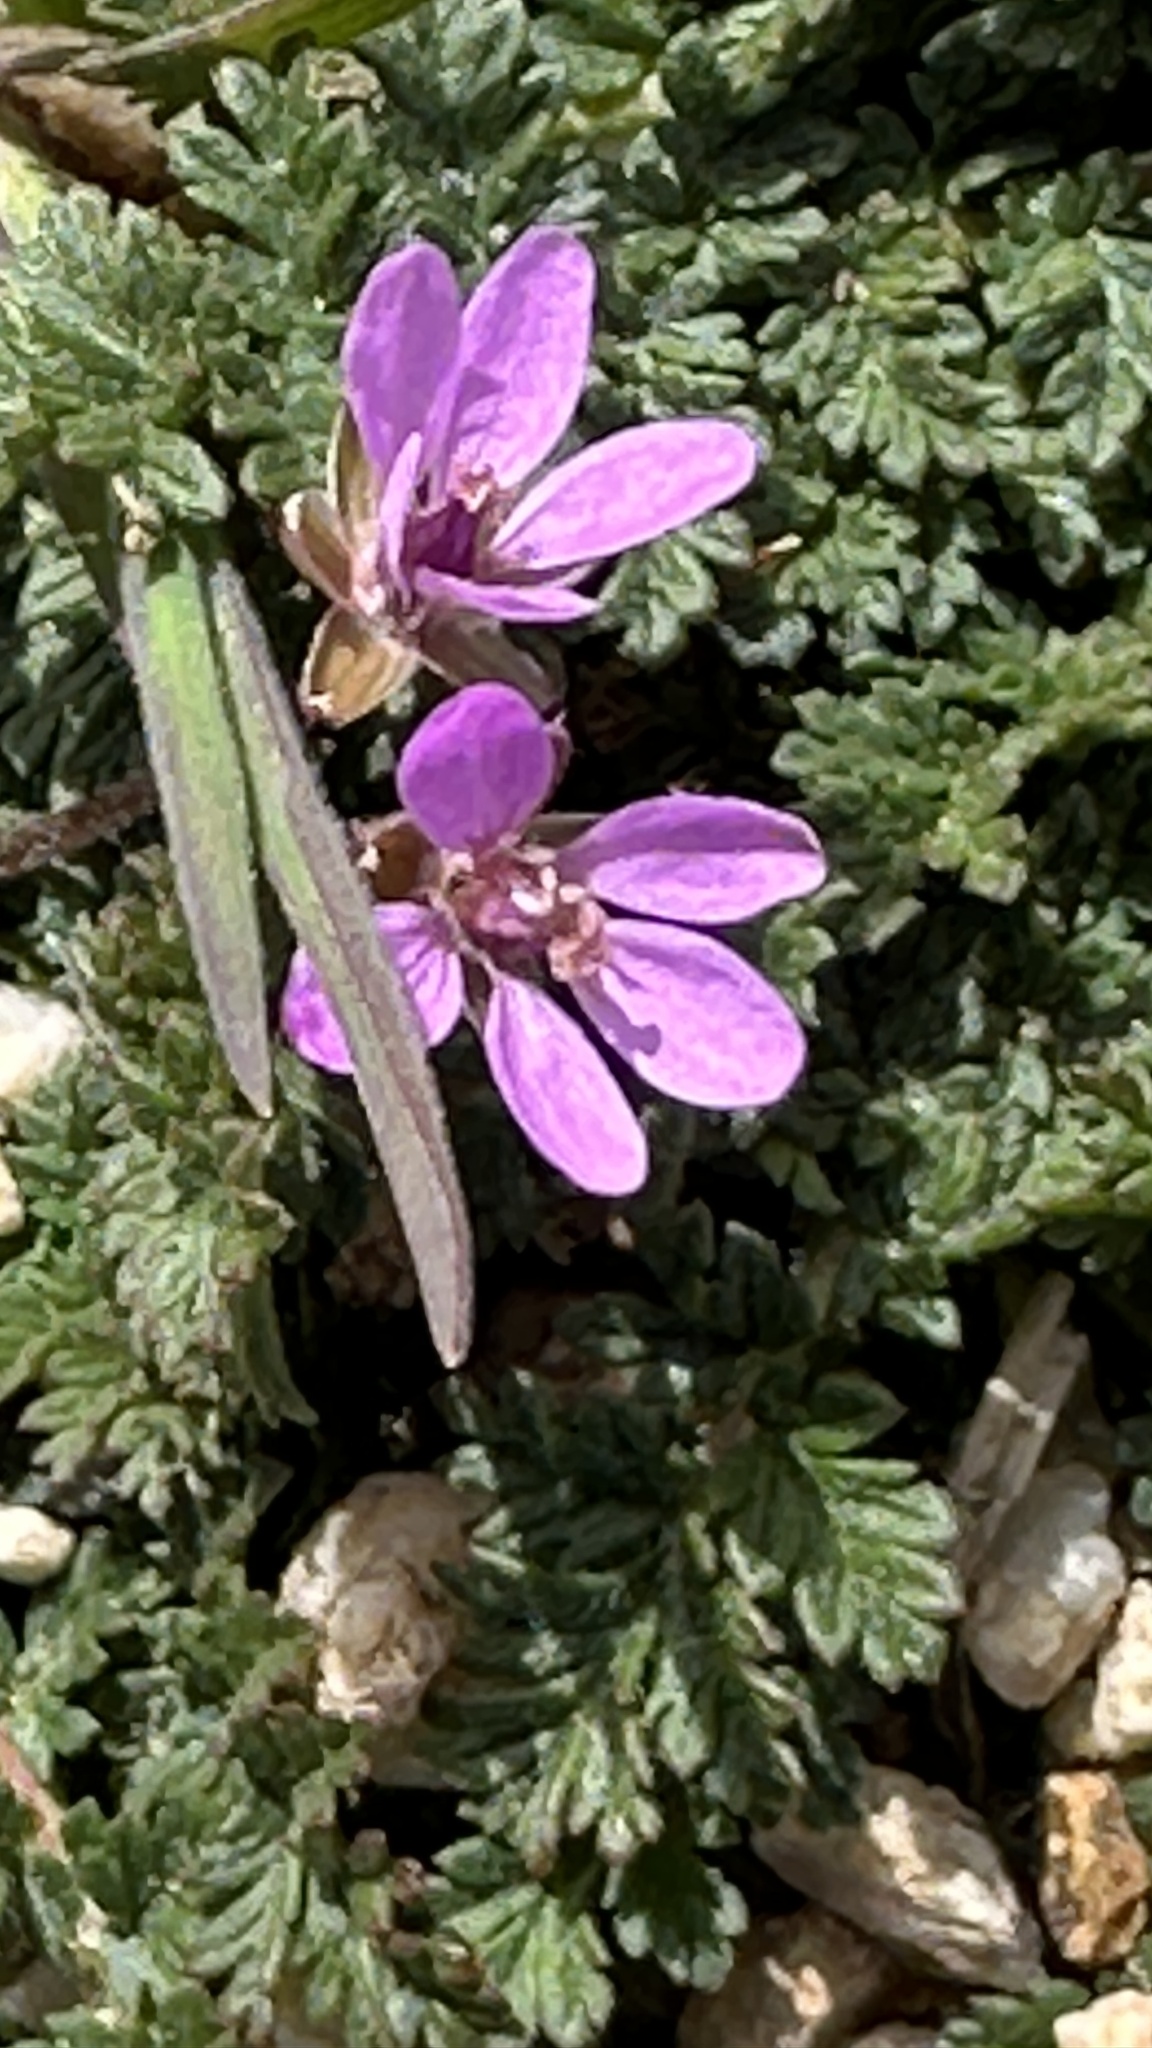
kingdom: Plantae
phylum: Tracheophyta
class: Magnoliopsida
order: Geraniales
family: Geraniaceae
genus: Erodium
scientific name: Erodium cicutarium
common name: Common stork's-bill
